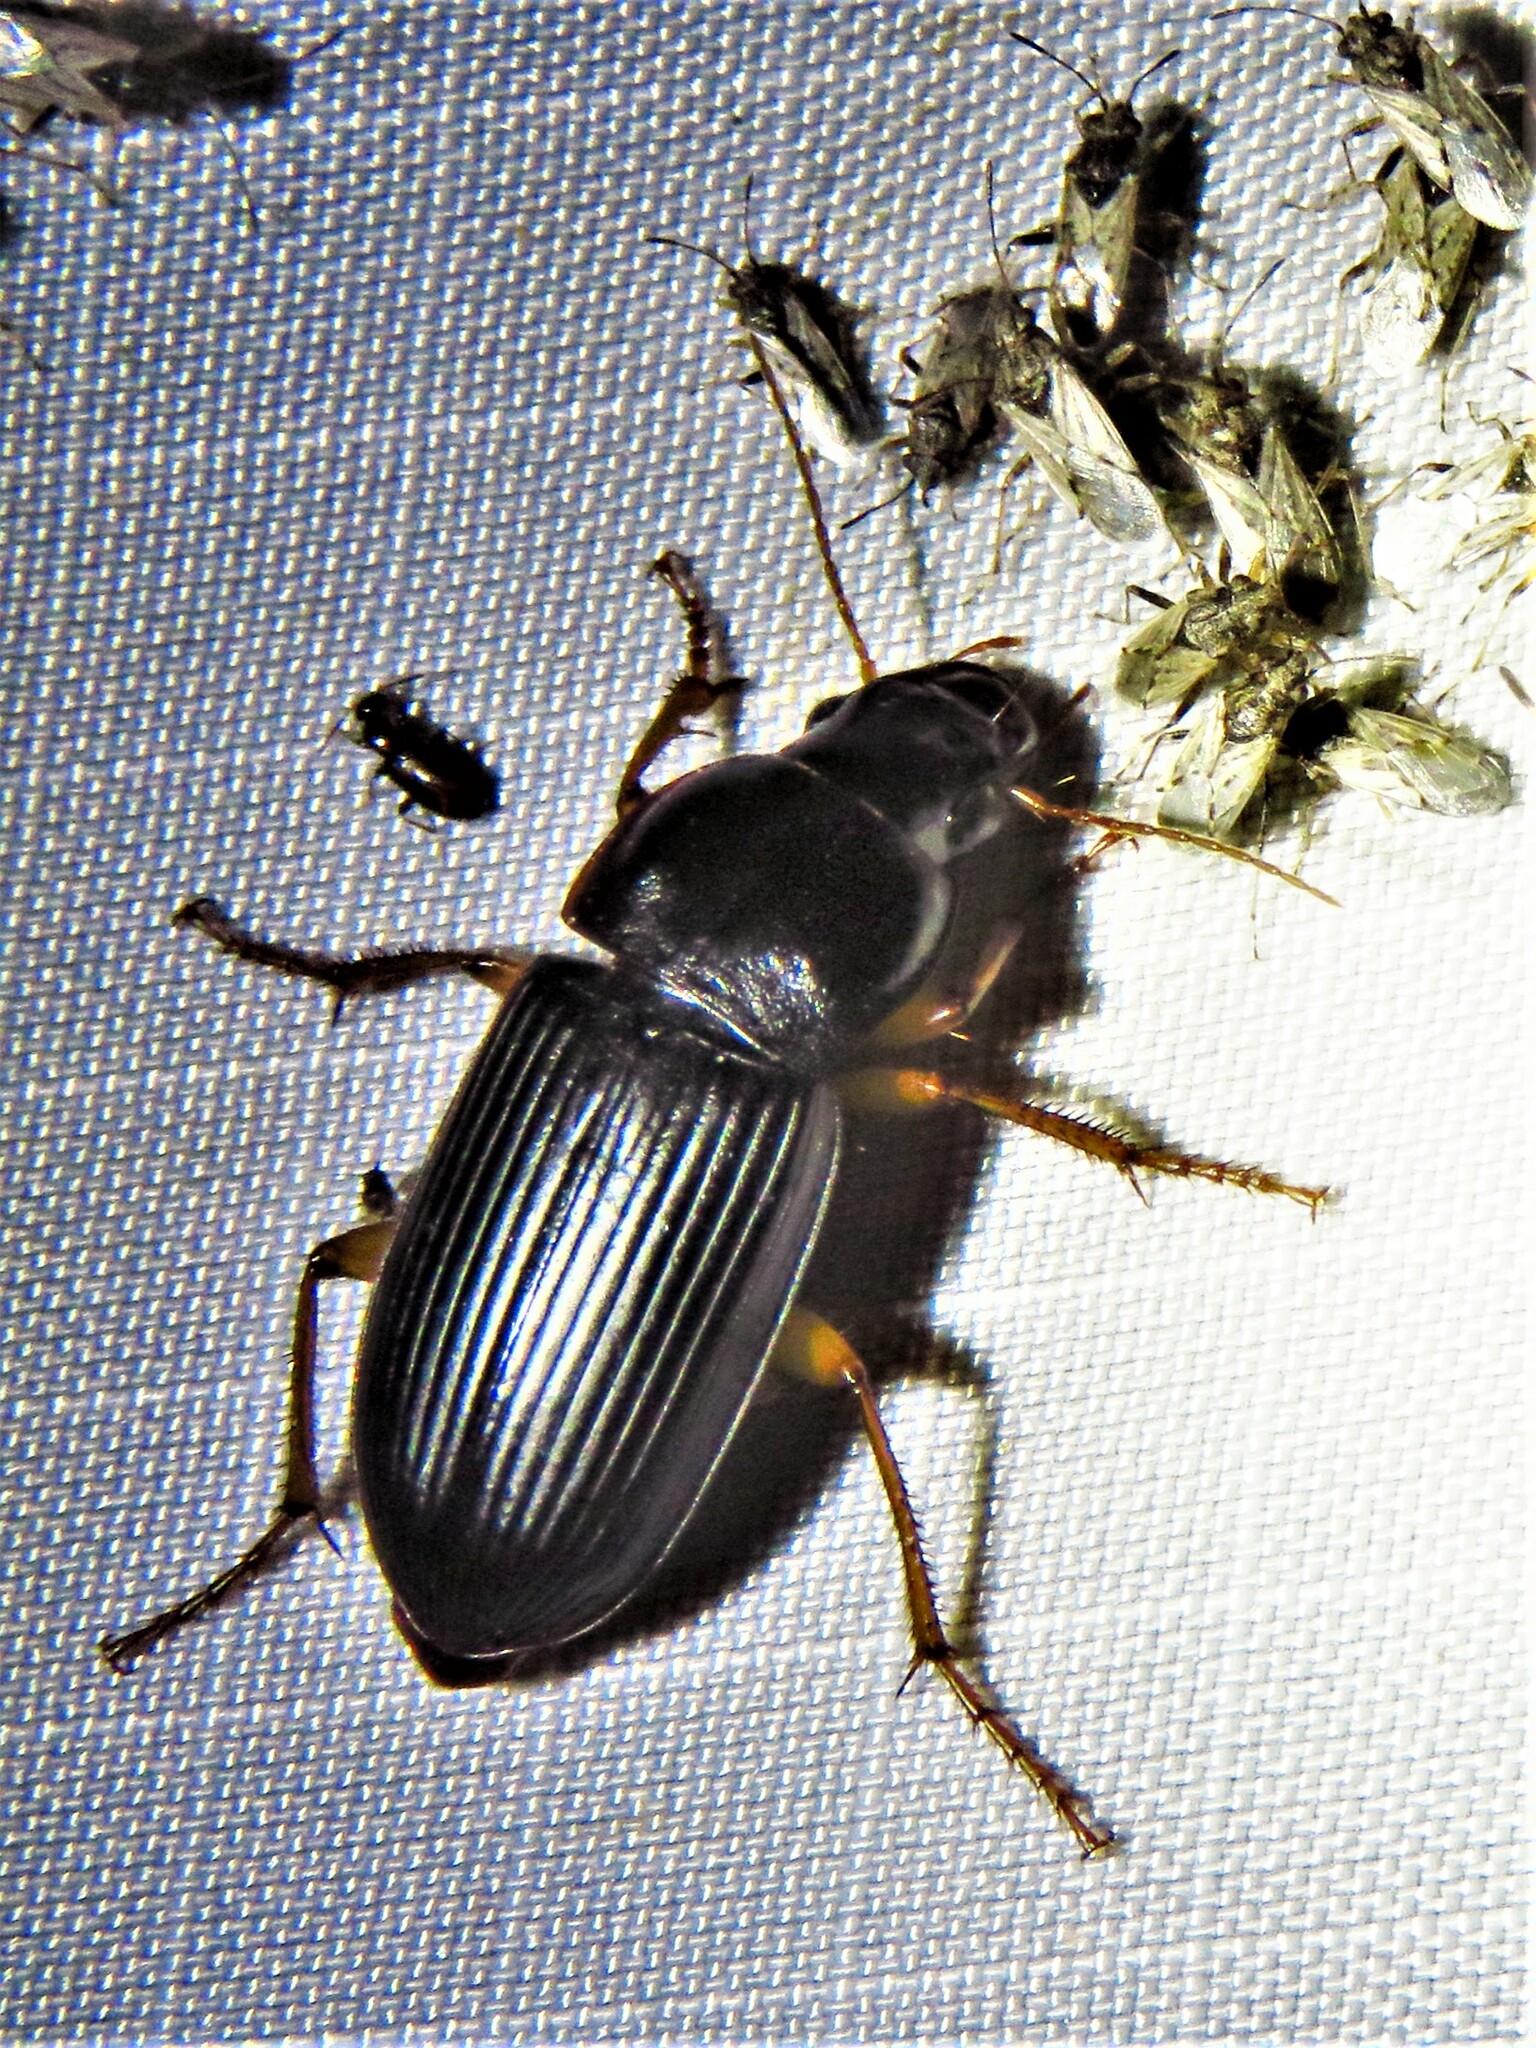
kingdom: Animalia
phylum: Arthropoda
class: Insecta
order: Coleoptera
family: Carabidae
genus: Harpalus
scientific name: Harpalus pensylvanicus
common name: Pennsylvania dingy ground beetle
